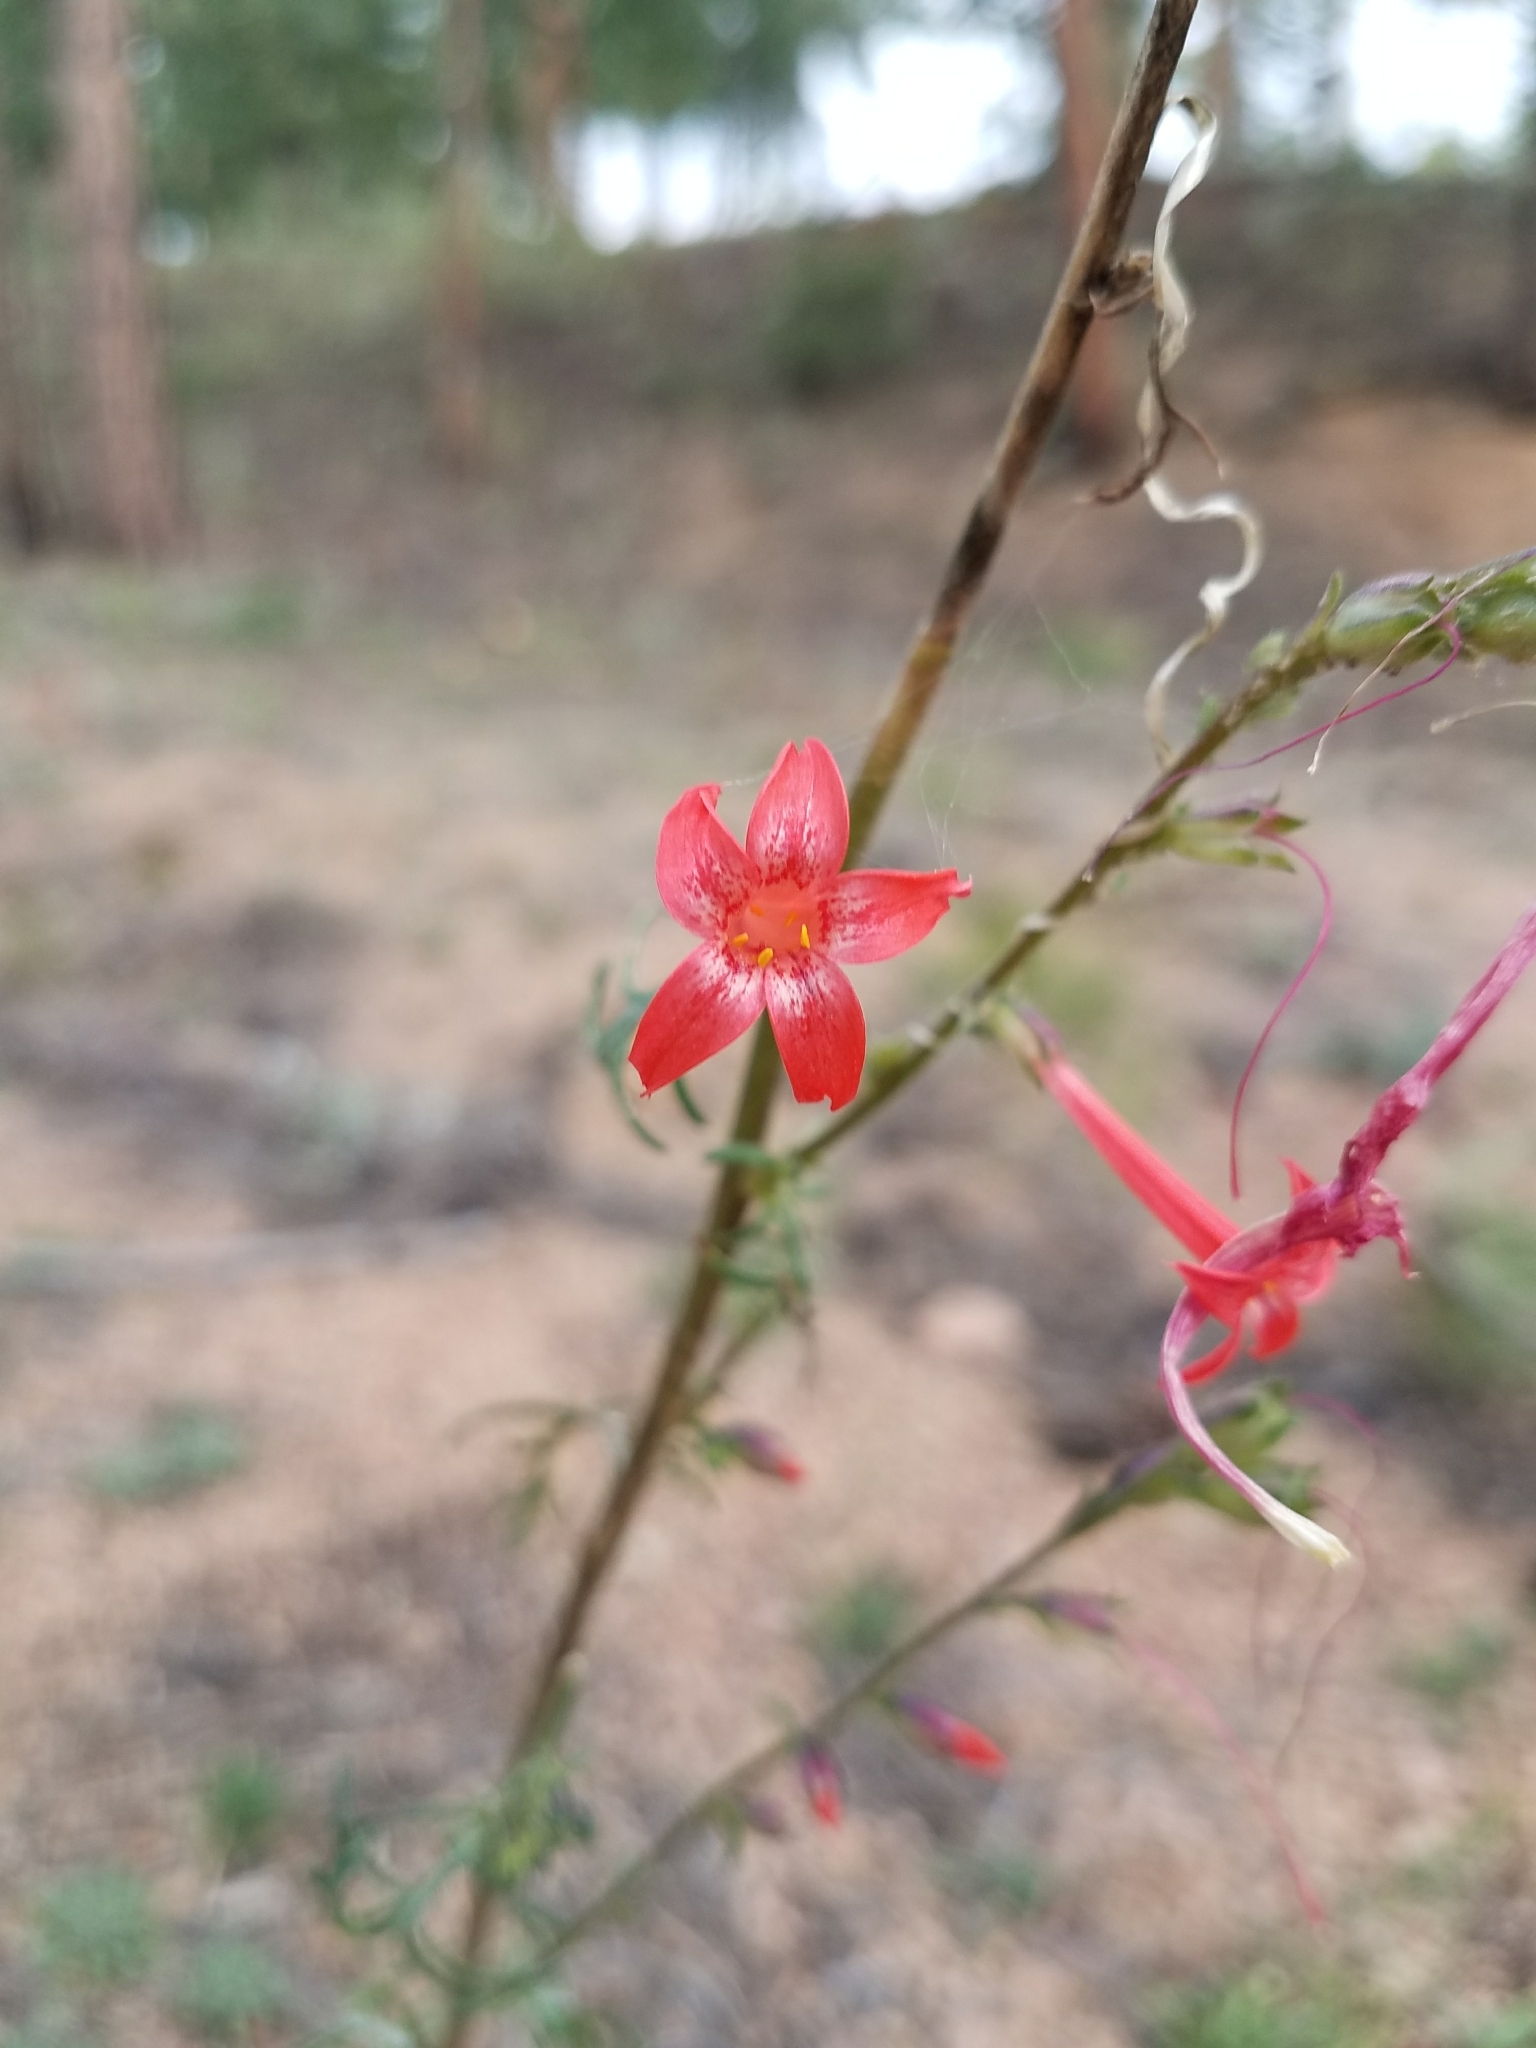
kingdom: Plantae
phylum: Tracheophyta
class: Magnoliopsida
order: Ericales
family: Polemoniaceae
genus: Ipomopsis
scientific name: Ipomopsis aggregata
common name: Scarlet gilia
